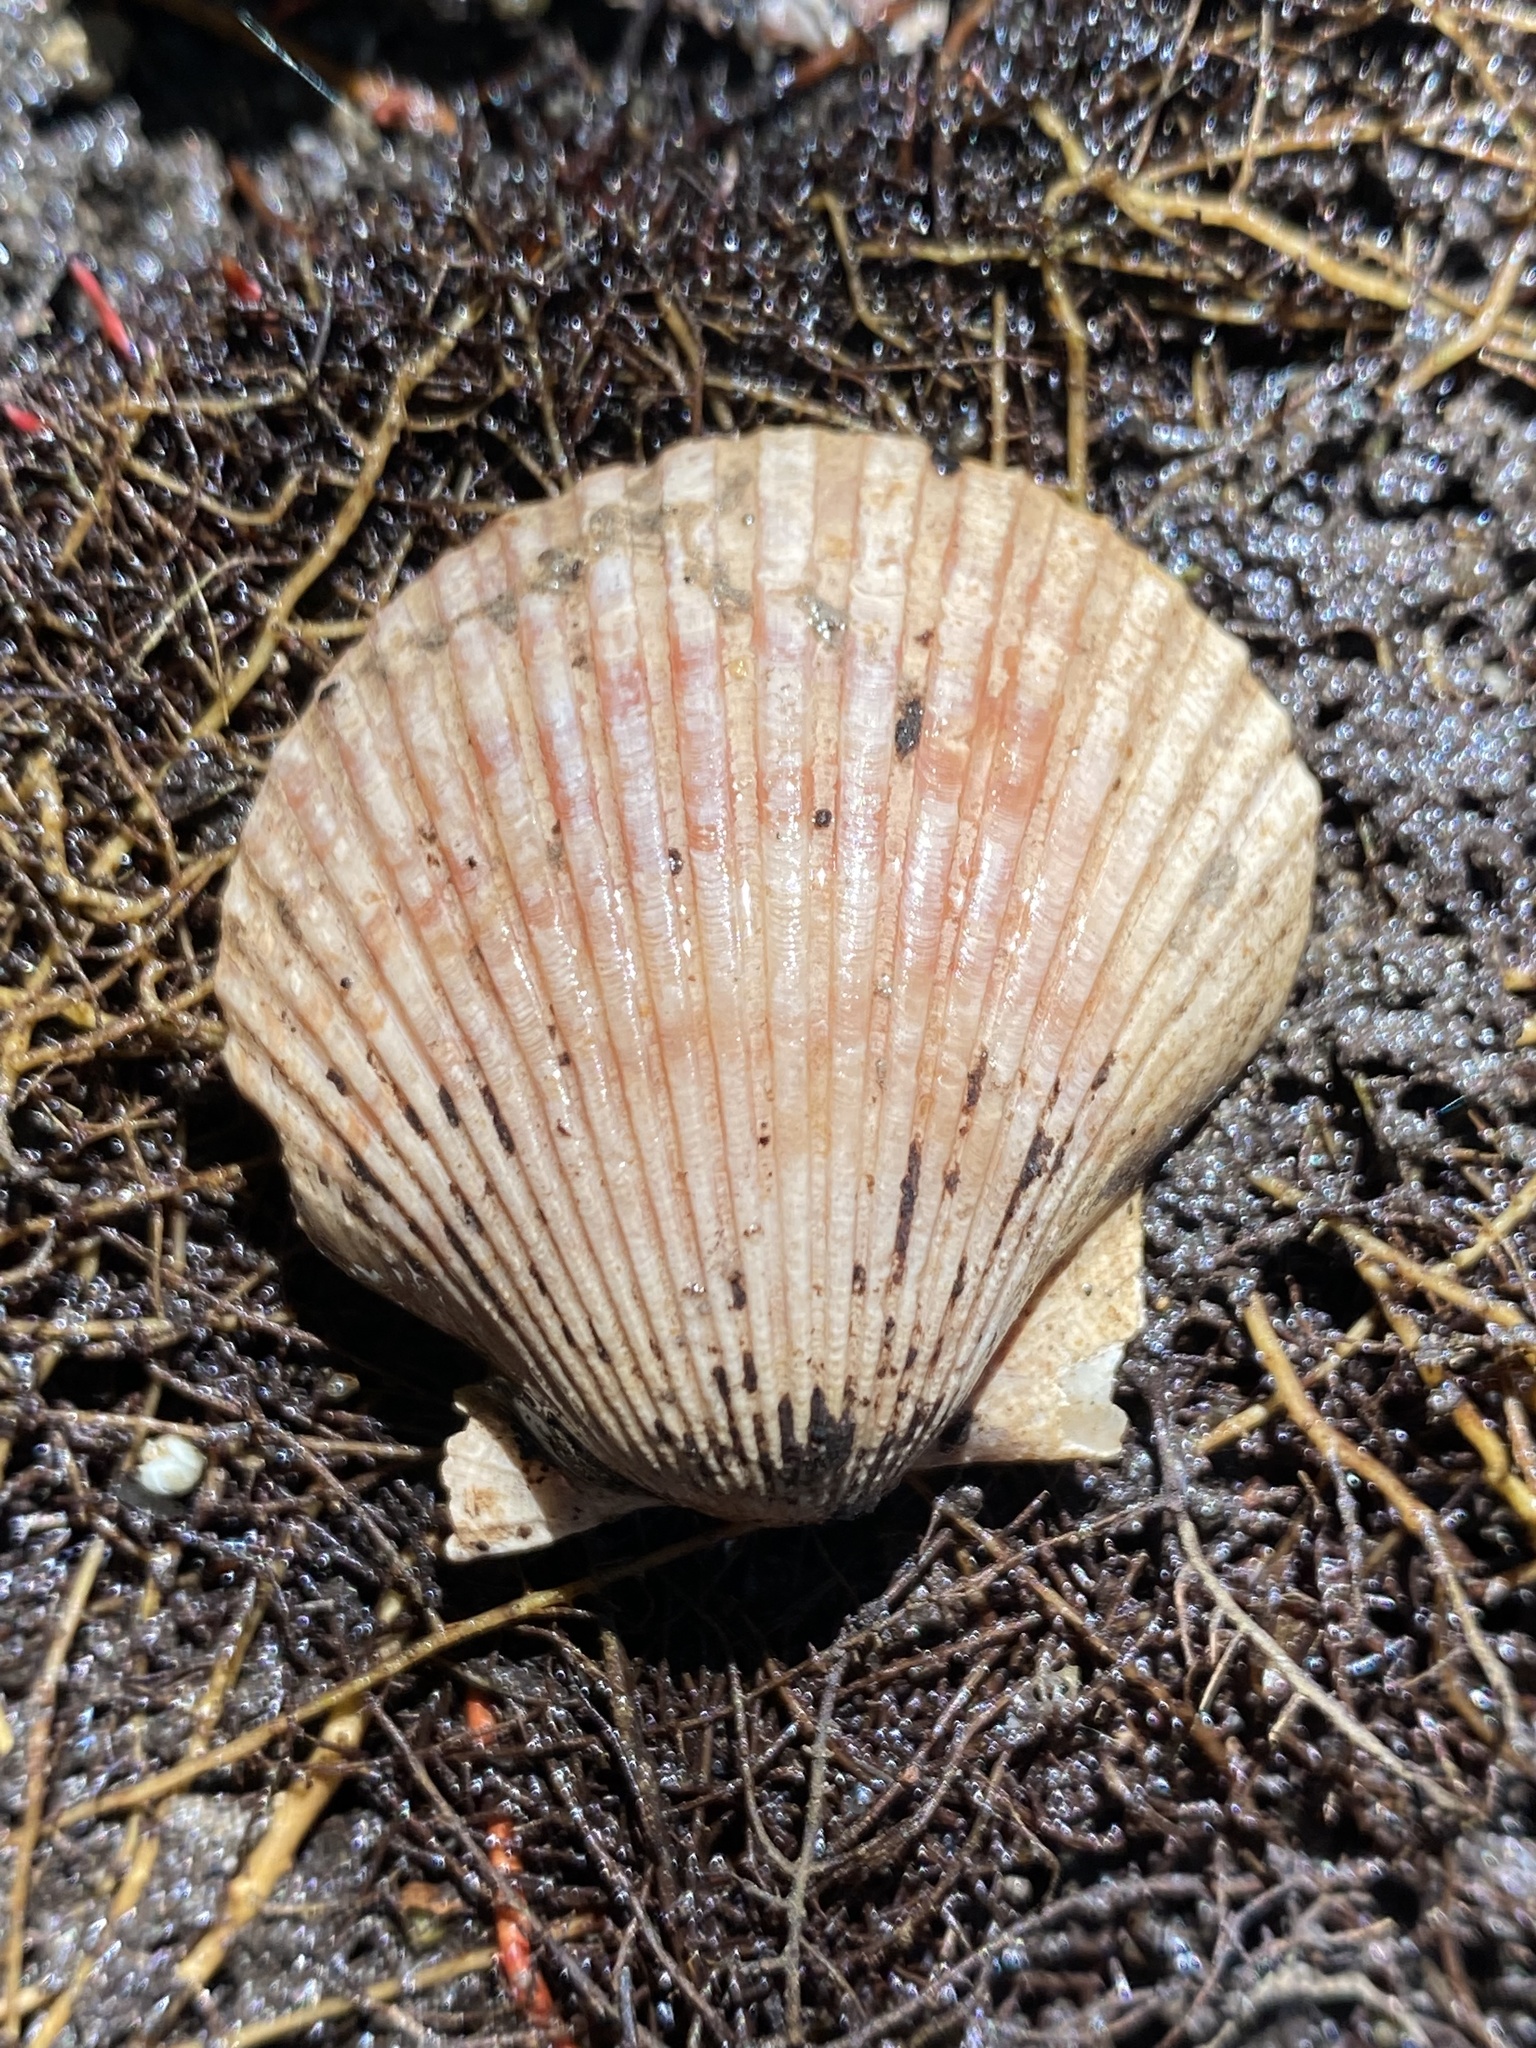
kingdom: Animalia
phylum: Mollusca
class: Bivalvia
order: Pectinida
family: Pectinidae
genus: Argopecten
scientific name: Argopecten ventricosus
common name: Catarina scallop
